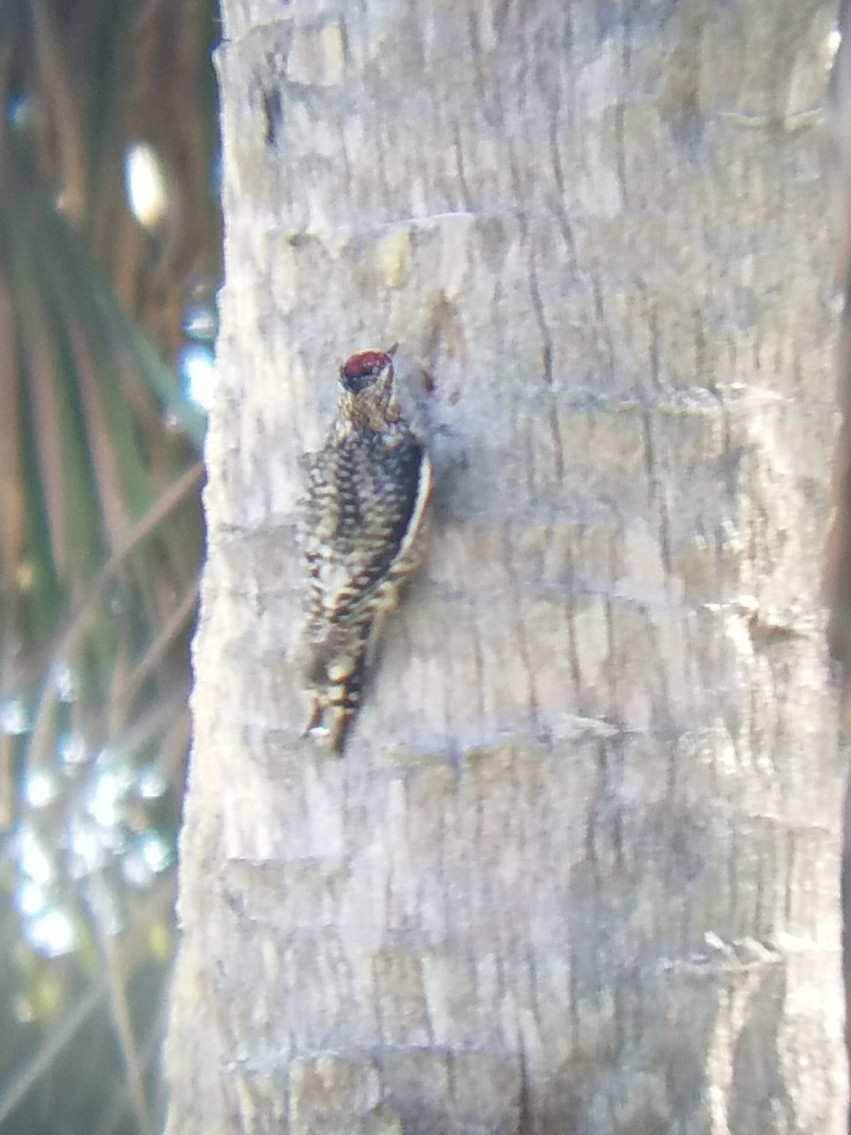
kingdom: Animalia
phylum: Chordata
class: Aves
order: Piciformes
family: Picidae
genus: Sphyrapicus
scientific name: Sphyrapicus varius
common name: Yellow-bellied sapsucker
